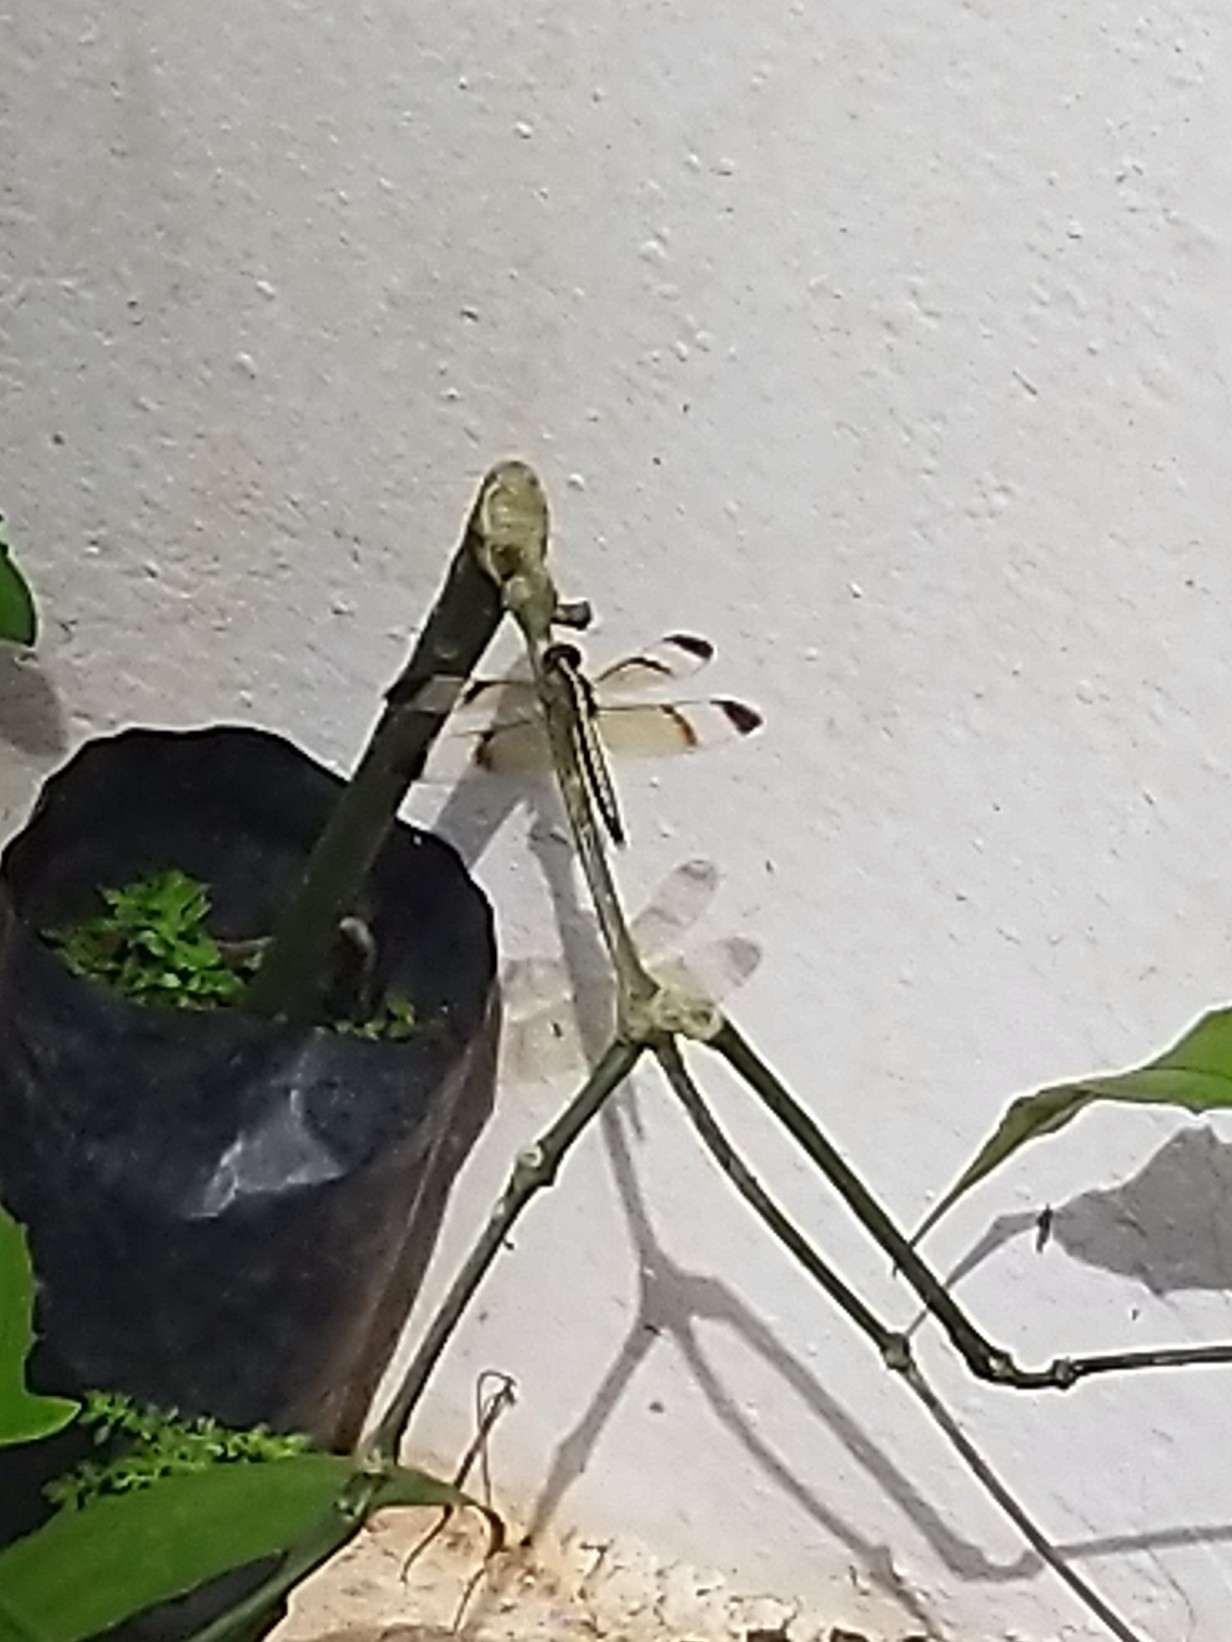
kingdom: Animalia
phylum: Arthropoda
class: Insecta
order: Odonata
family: Libellulidae
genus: Neurothemis
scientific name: Neurothemis tullia
